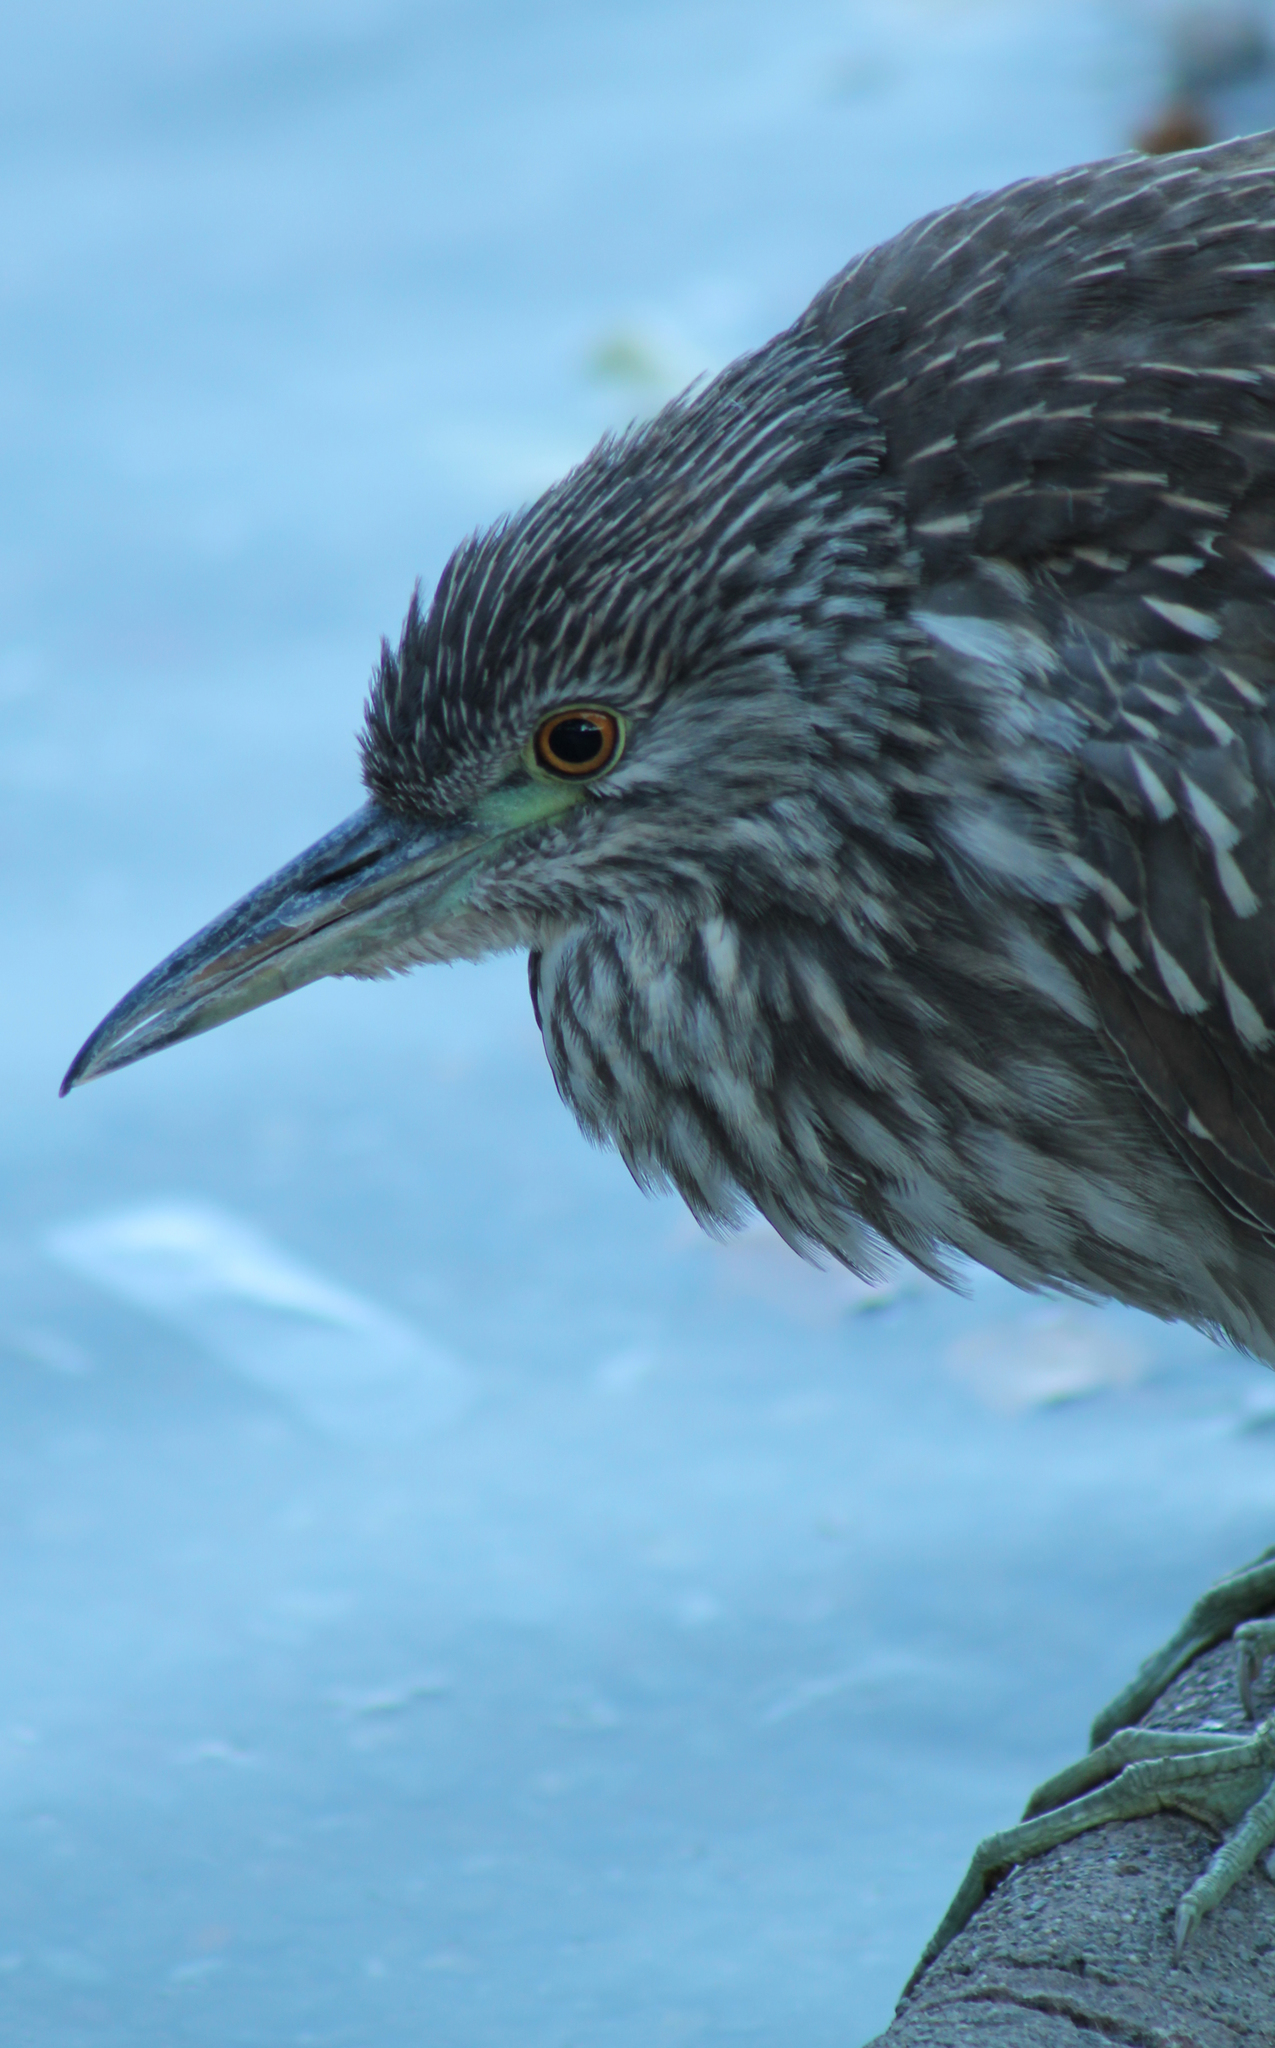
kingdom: Animalia
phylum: Chordata
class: Aves
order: Pelecaniformes
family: Ardeidae
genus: Nycticorax
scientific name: Nycticorax nycticorax
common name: Black-crowned night heron
